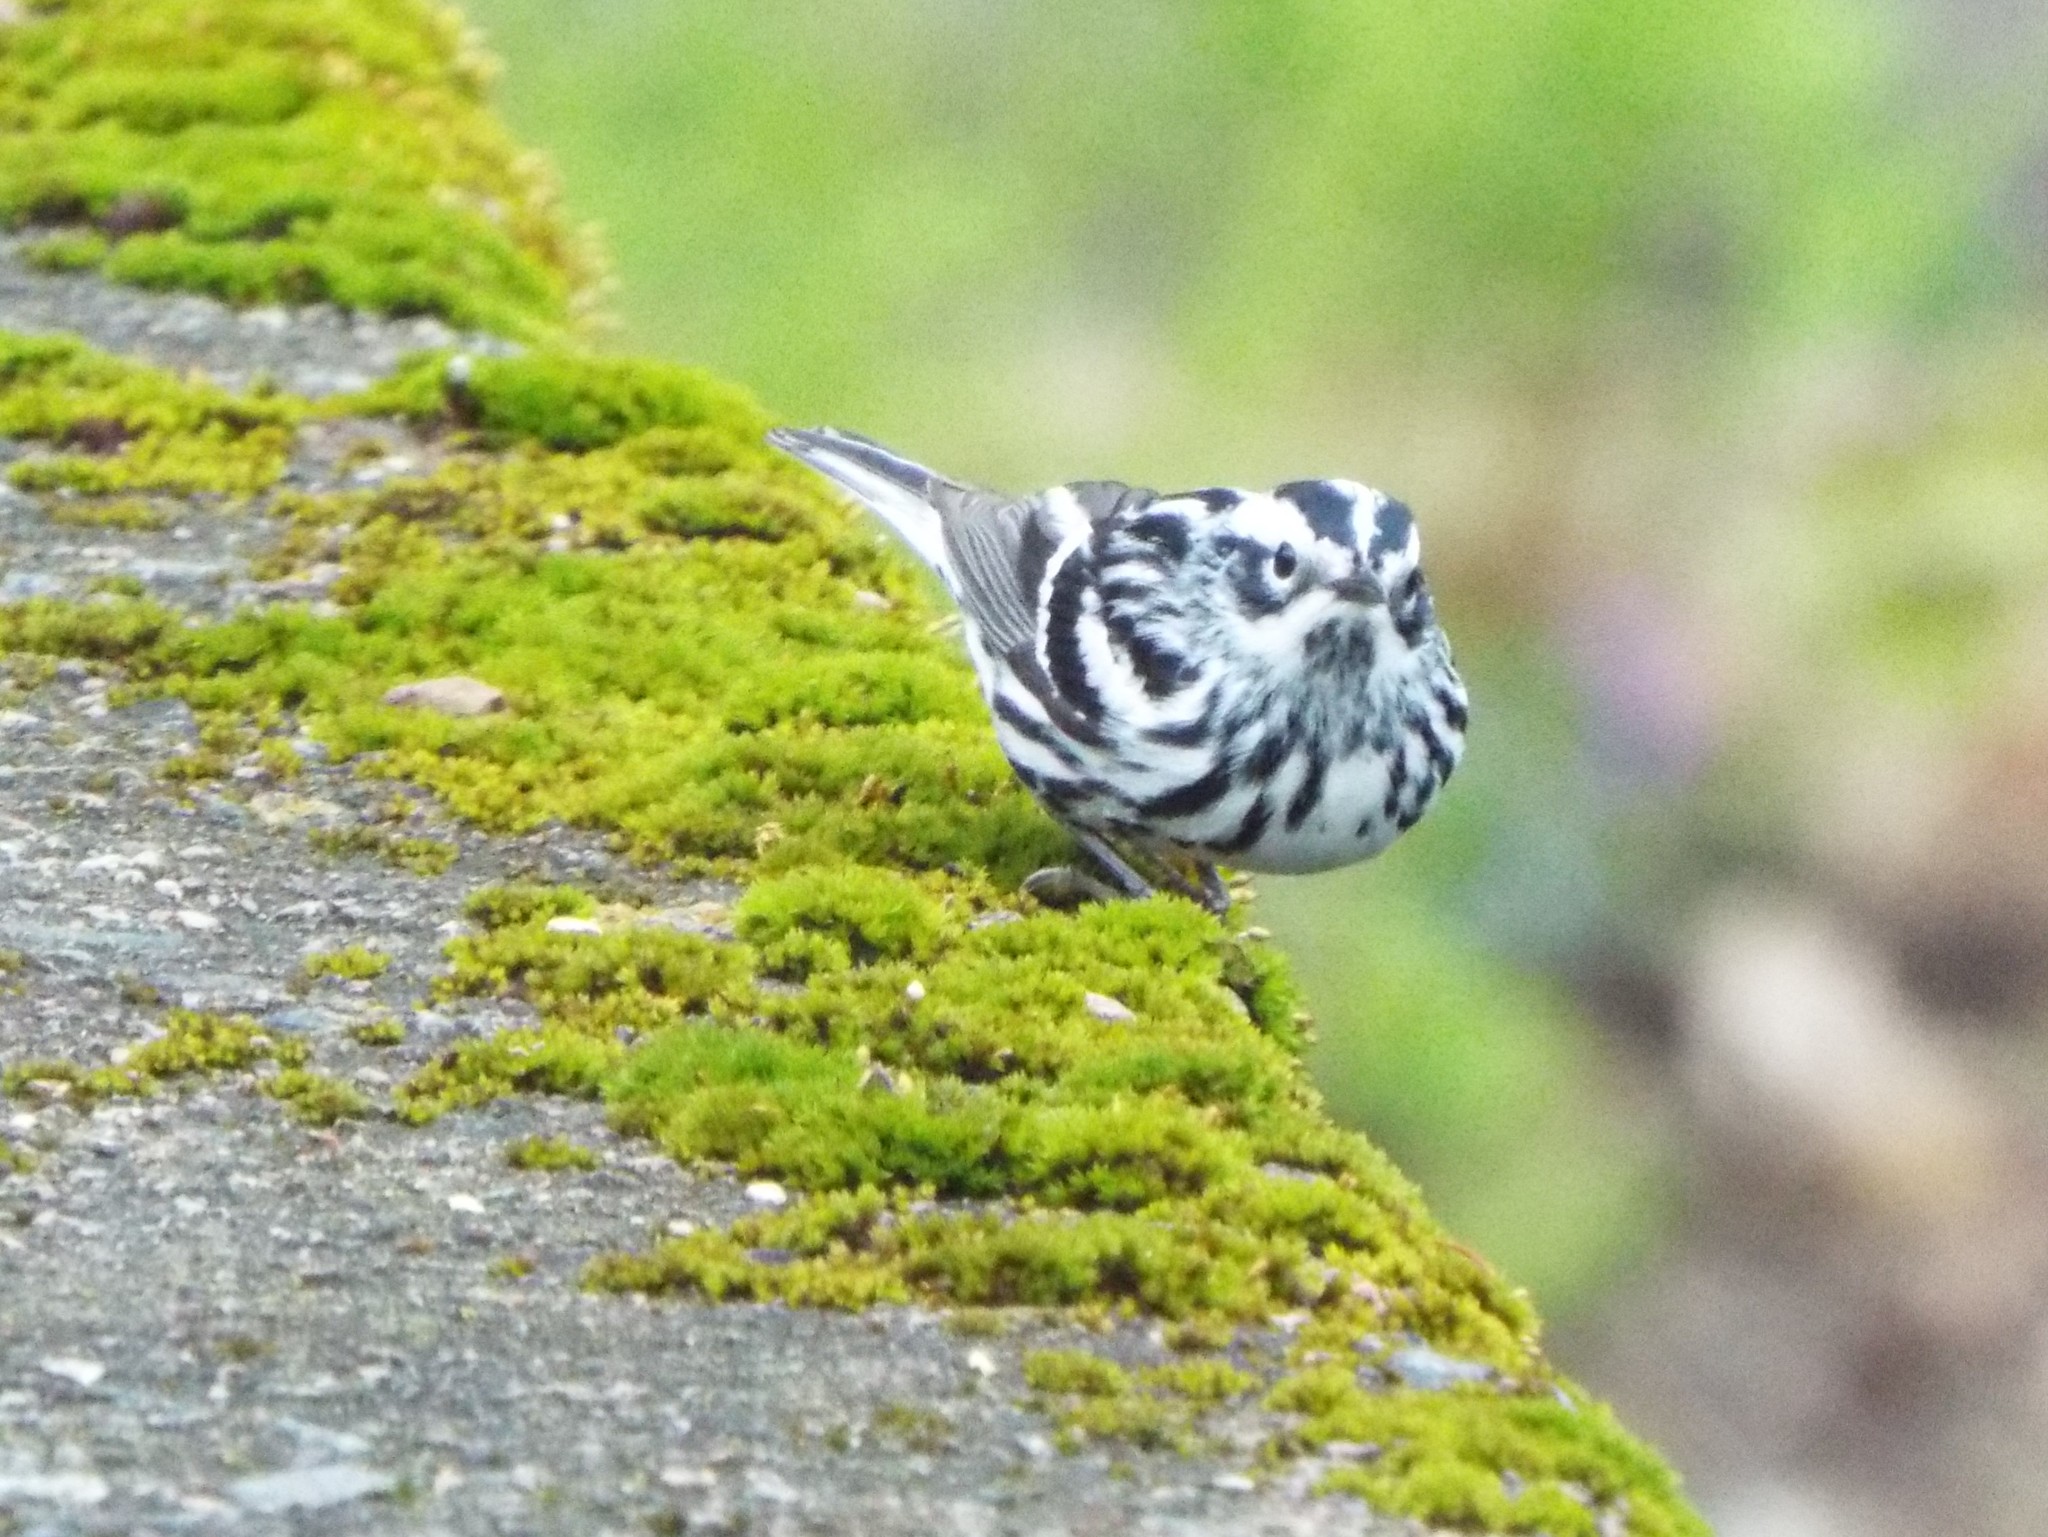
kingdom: Animalia
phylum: Chordata
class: Aves
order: Passeriformes
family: Parulidae
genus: Mniotilta
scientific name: Mniotilta varia
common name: Black-and-white warbler
